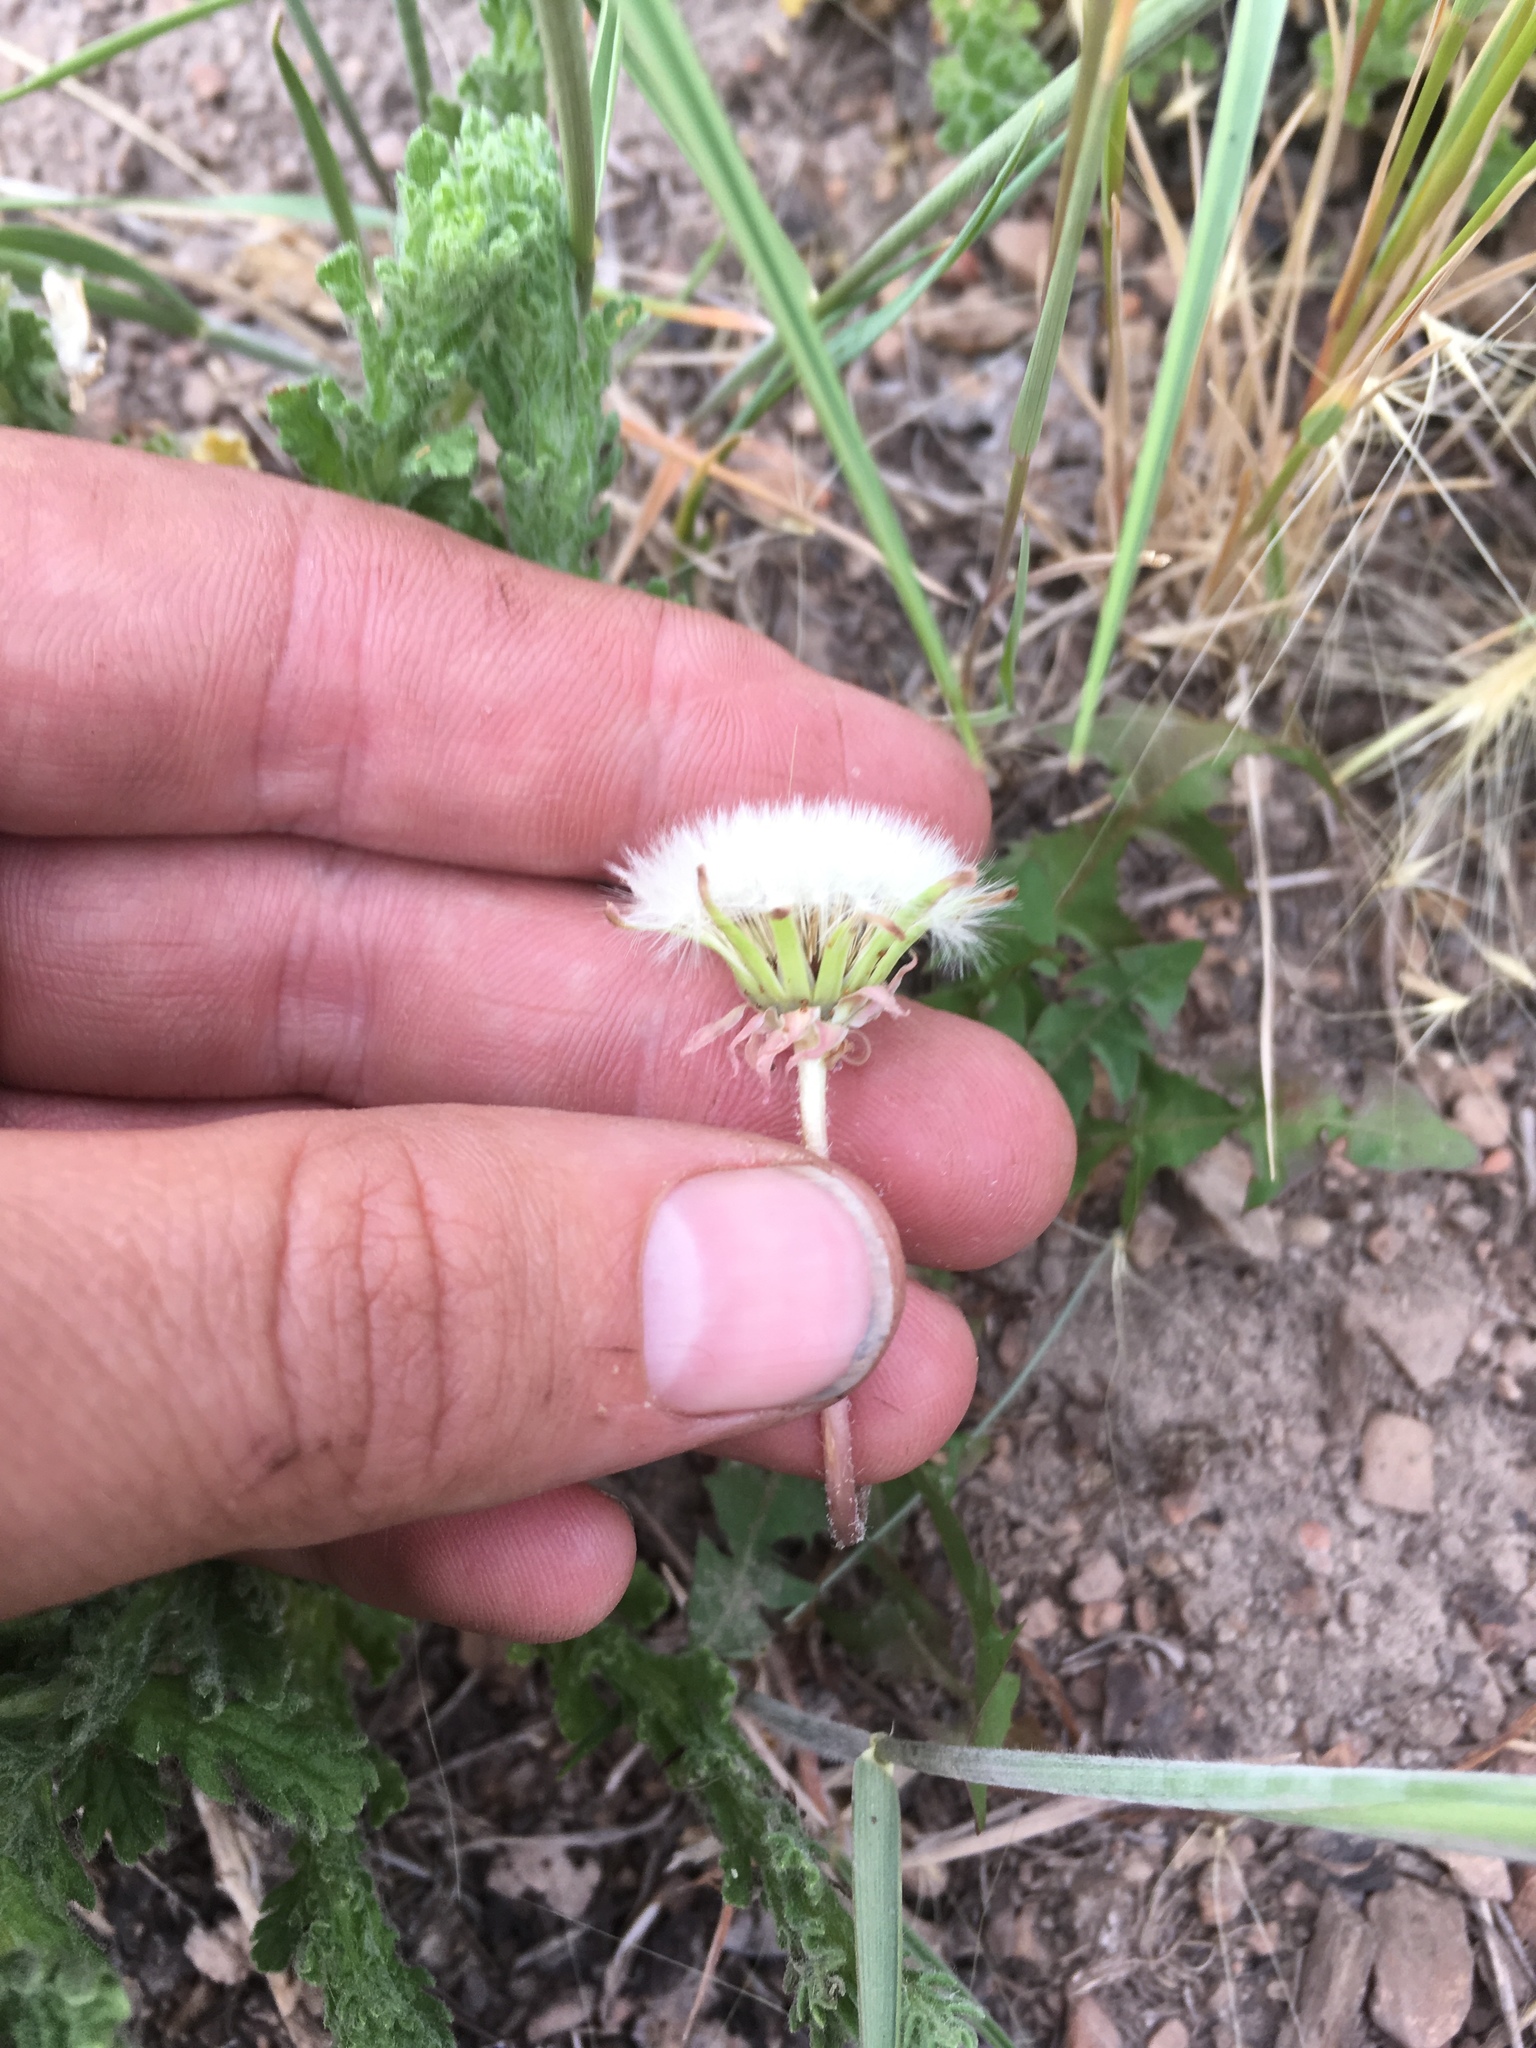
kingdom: Plantae
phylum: Tracheophyta
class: Magnoliopsida
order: Asterales
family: Asteraceae
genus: Taraxacum
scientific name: Taraxacum officinale
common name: Common dandelion
